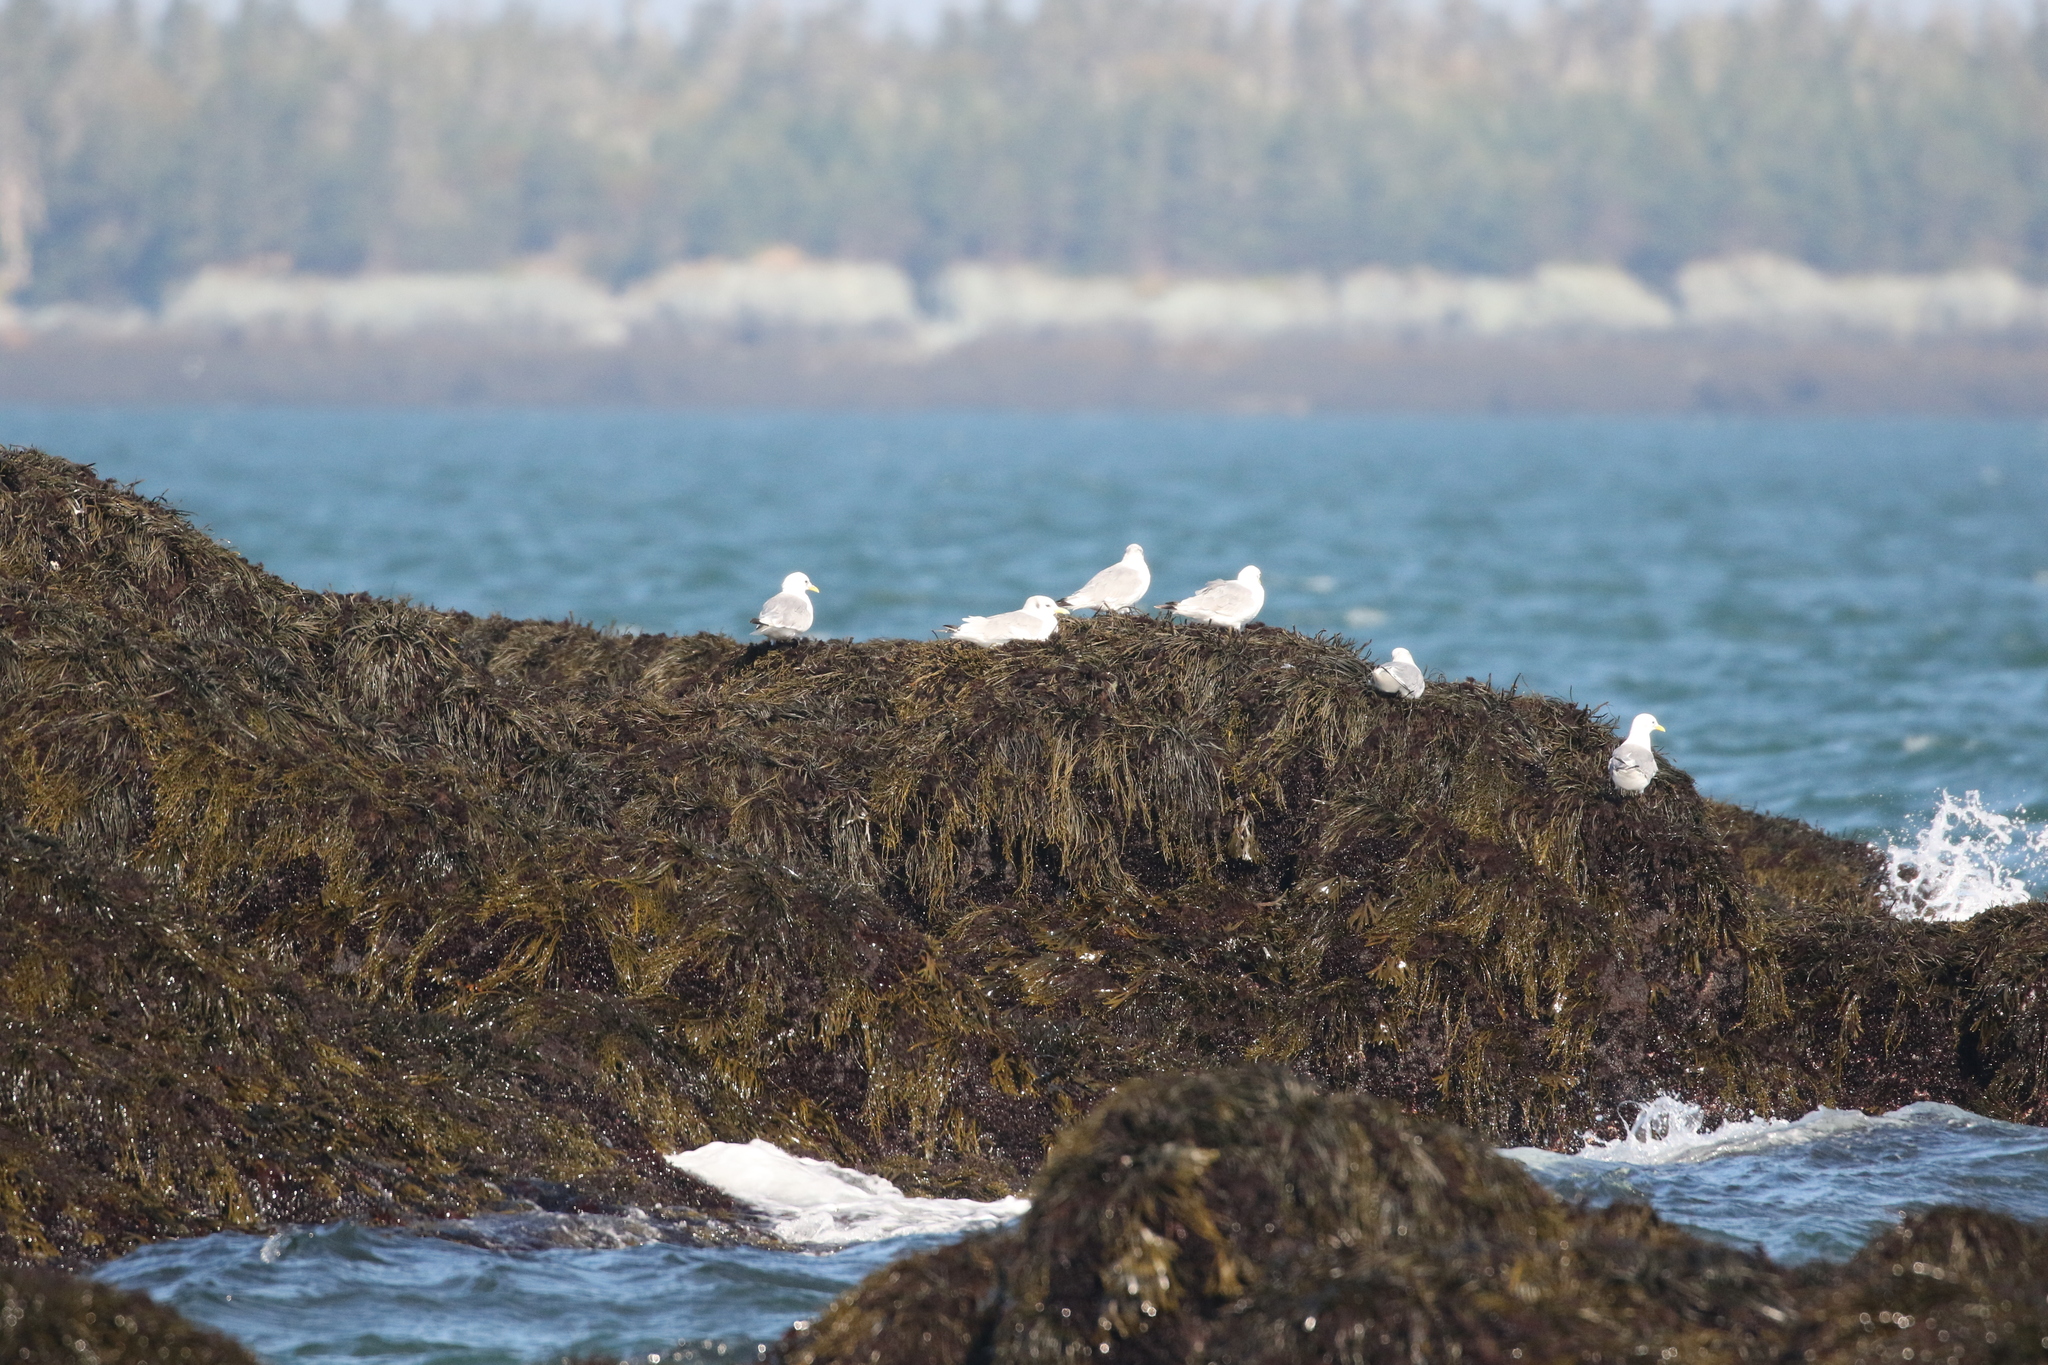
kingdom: Animalia
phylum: Chordata
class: Aves
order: Charadriiformes
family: Laridae
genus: Rissa
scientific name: Rissa tridactyla
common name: Black-legged kittiwake
